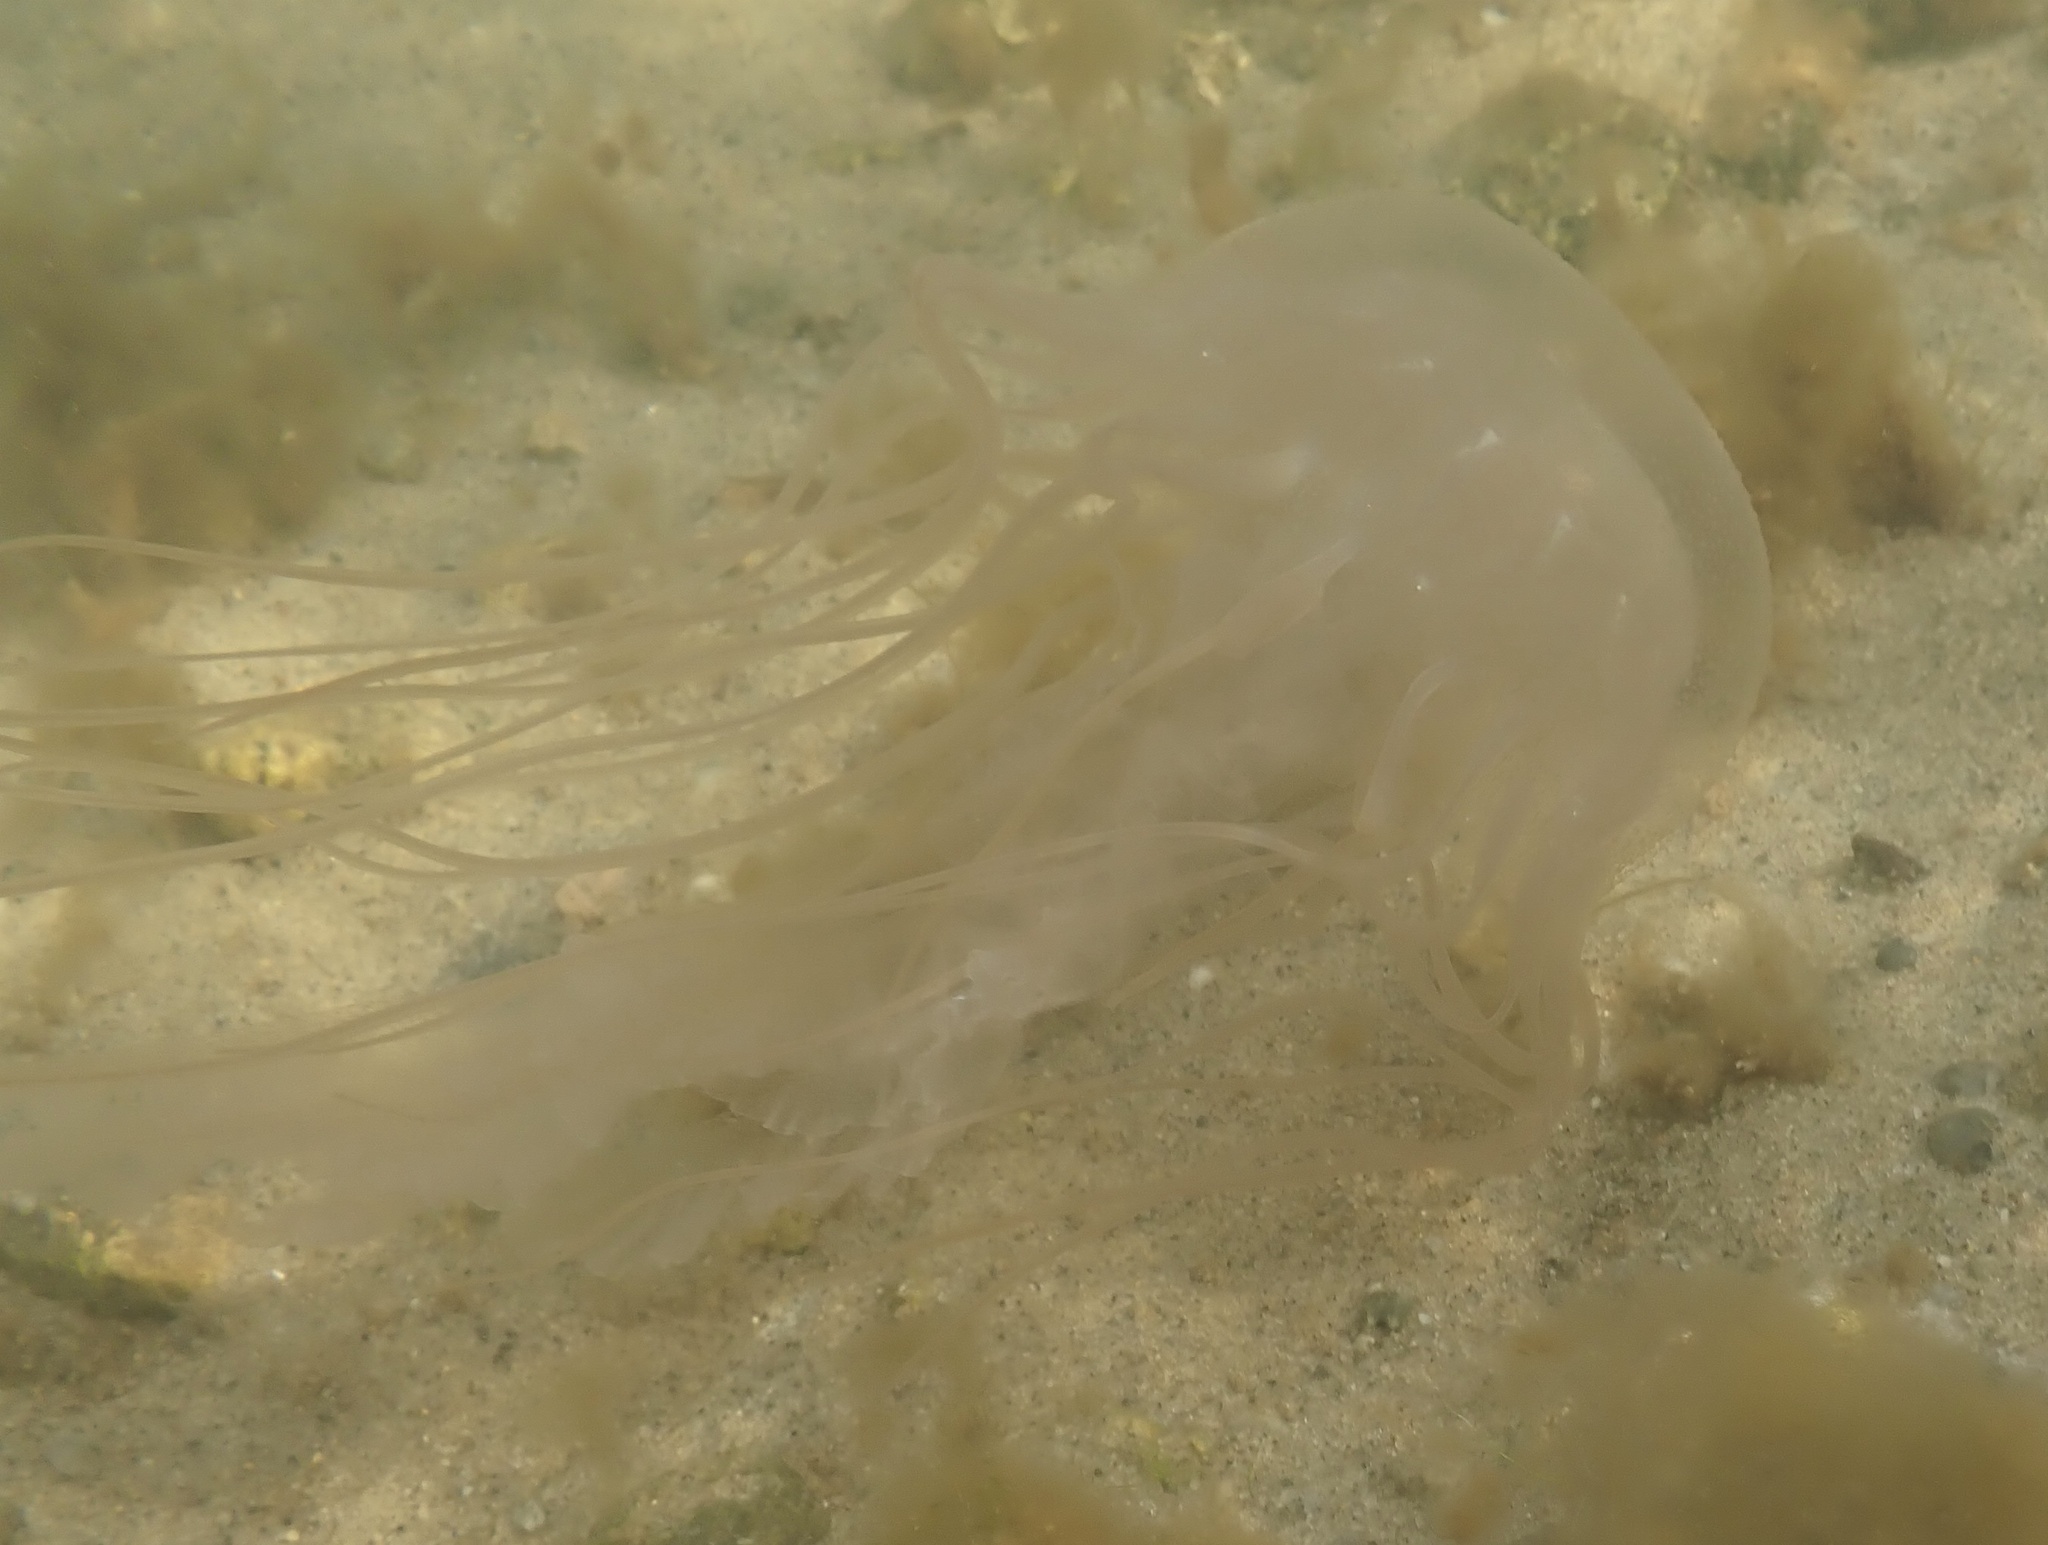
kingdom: Animalia
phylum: Cnidaria
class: Scyphozoa
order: Semaeostomeae
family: Pelagiidae
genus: Chrysaora
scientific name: Chrysaora chesapeakei
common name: Bay nettle
